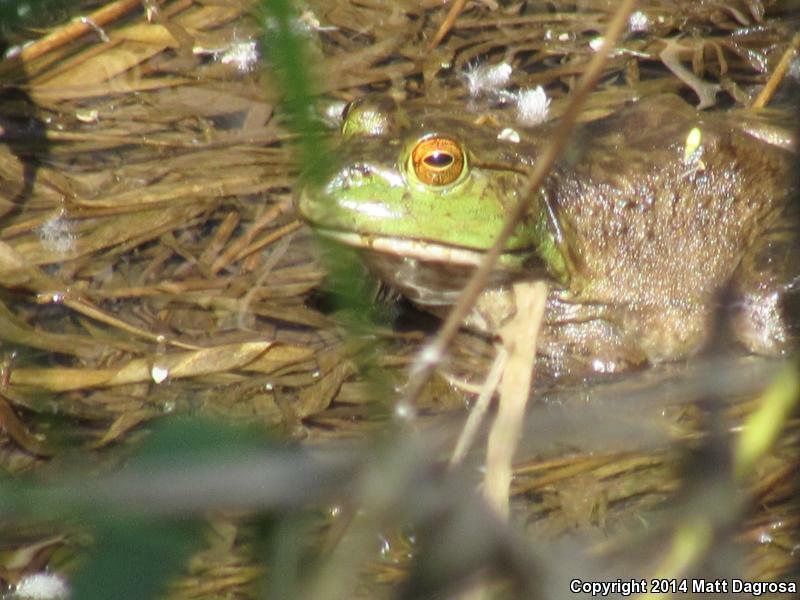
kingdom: Animalia
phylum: Chordata
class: Amphibia
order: Anura
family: Ranidae
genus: Lithobates
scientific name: Lithobates catesbeianus
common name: American bullfrog
